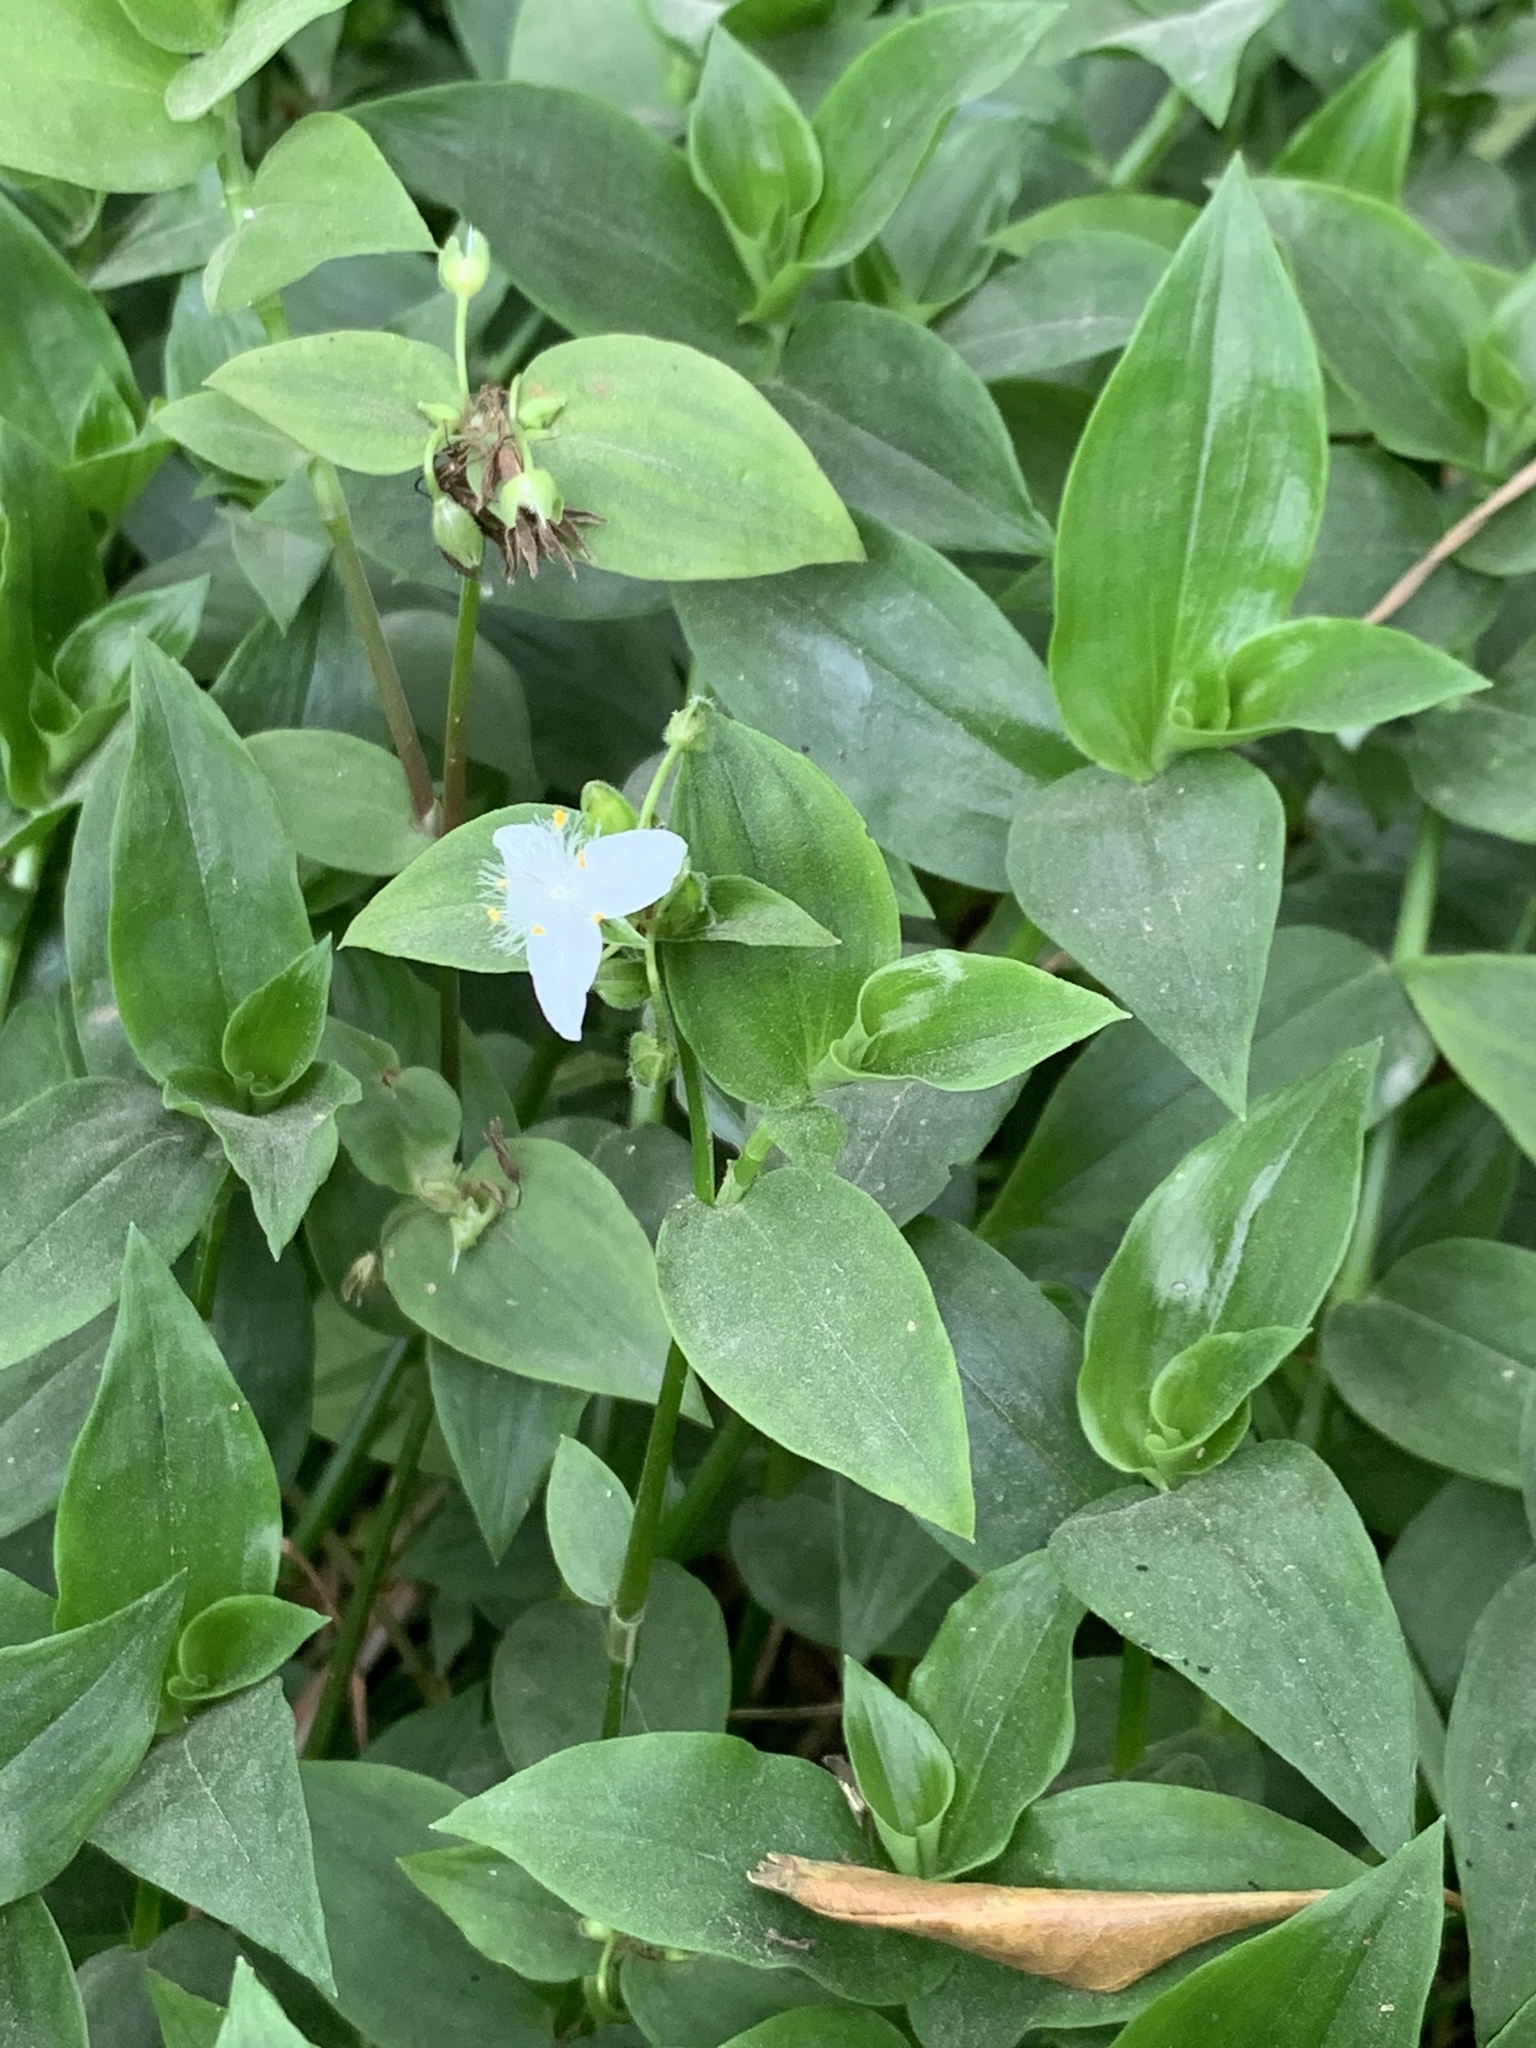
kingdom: Plantae
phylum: Tracheophyta
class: Liliopsida
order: Commelinales
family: Commelinaceae
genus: Tradescantia
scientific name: Tradescantia fluminensis
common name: Wandering-jew
